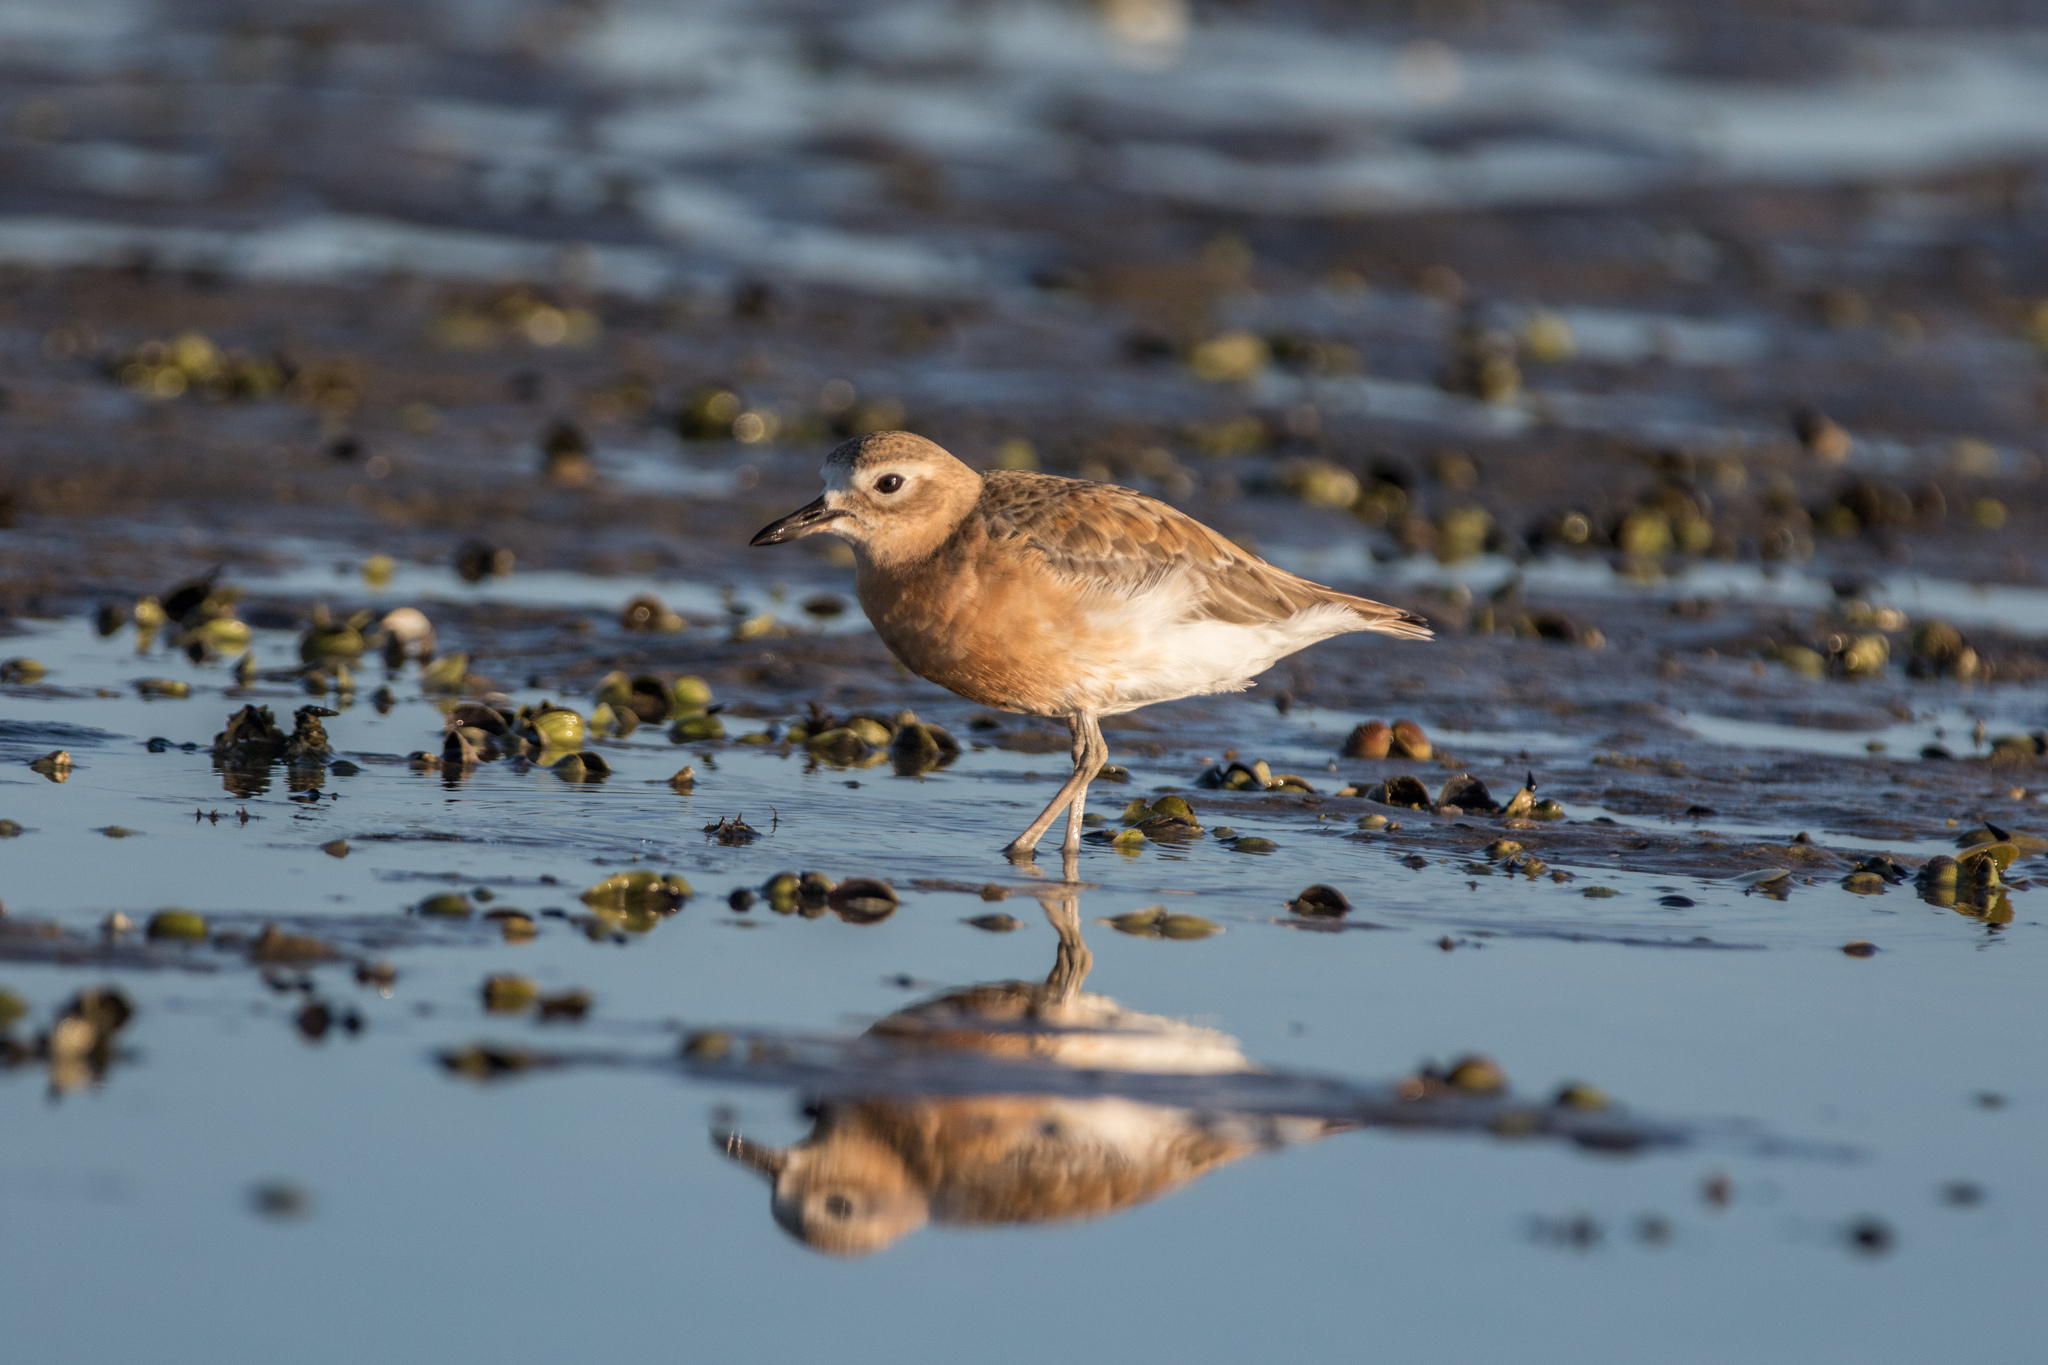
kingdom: Animalia
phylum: Chordata
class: Aves
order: Charadriiformes
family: Charadriidae
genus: Anarhynchus
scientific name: Anarhynchus
